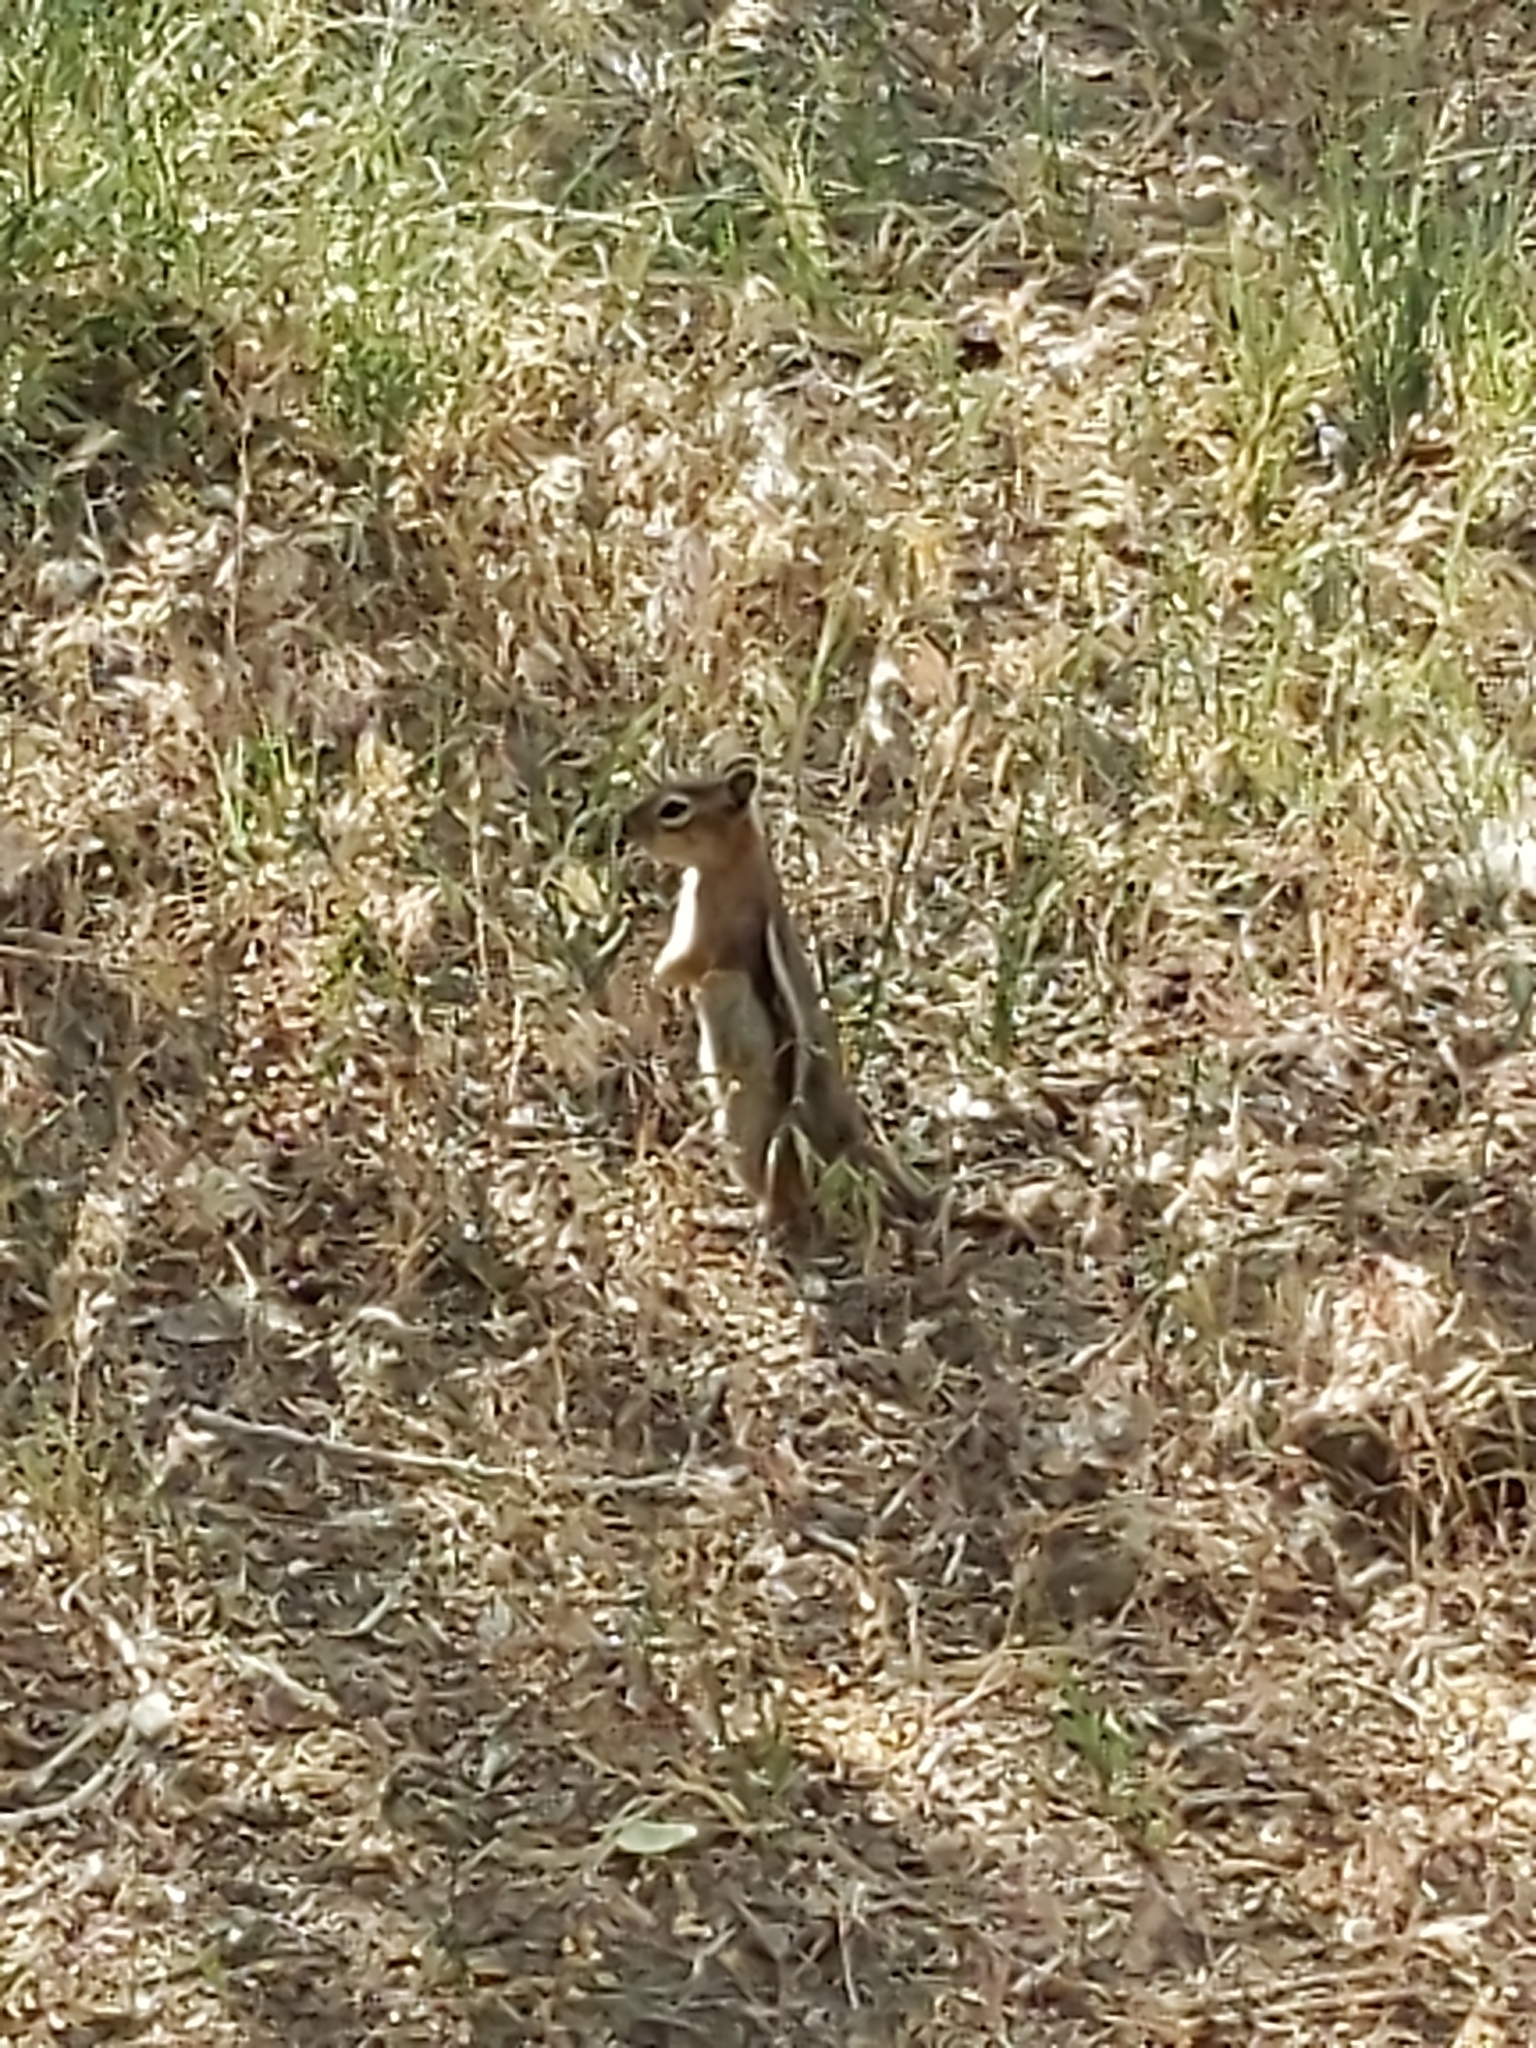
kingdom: Animalia
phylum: Chordata
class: Mammalia
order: Rodentia
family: Sciuridae
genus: Callospermophilus
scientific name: Callospermophilus lateralis
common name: Golden-mantled ground squirrel
